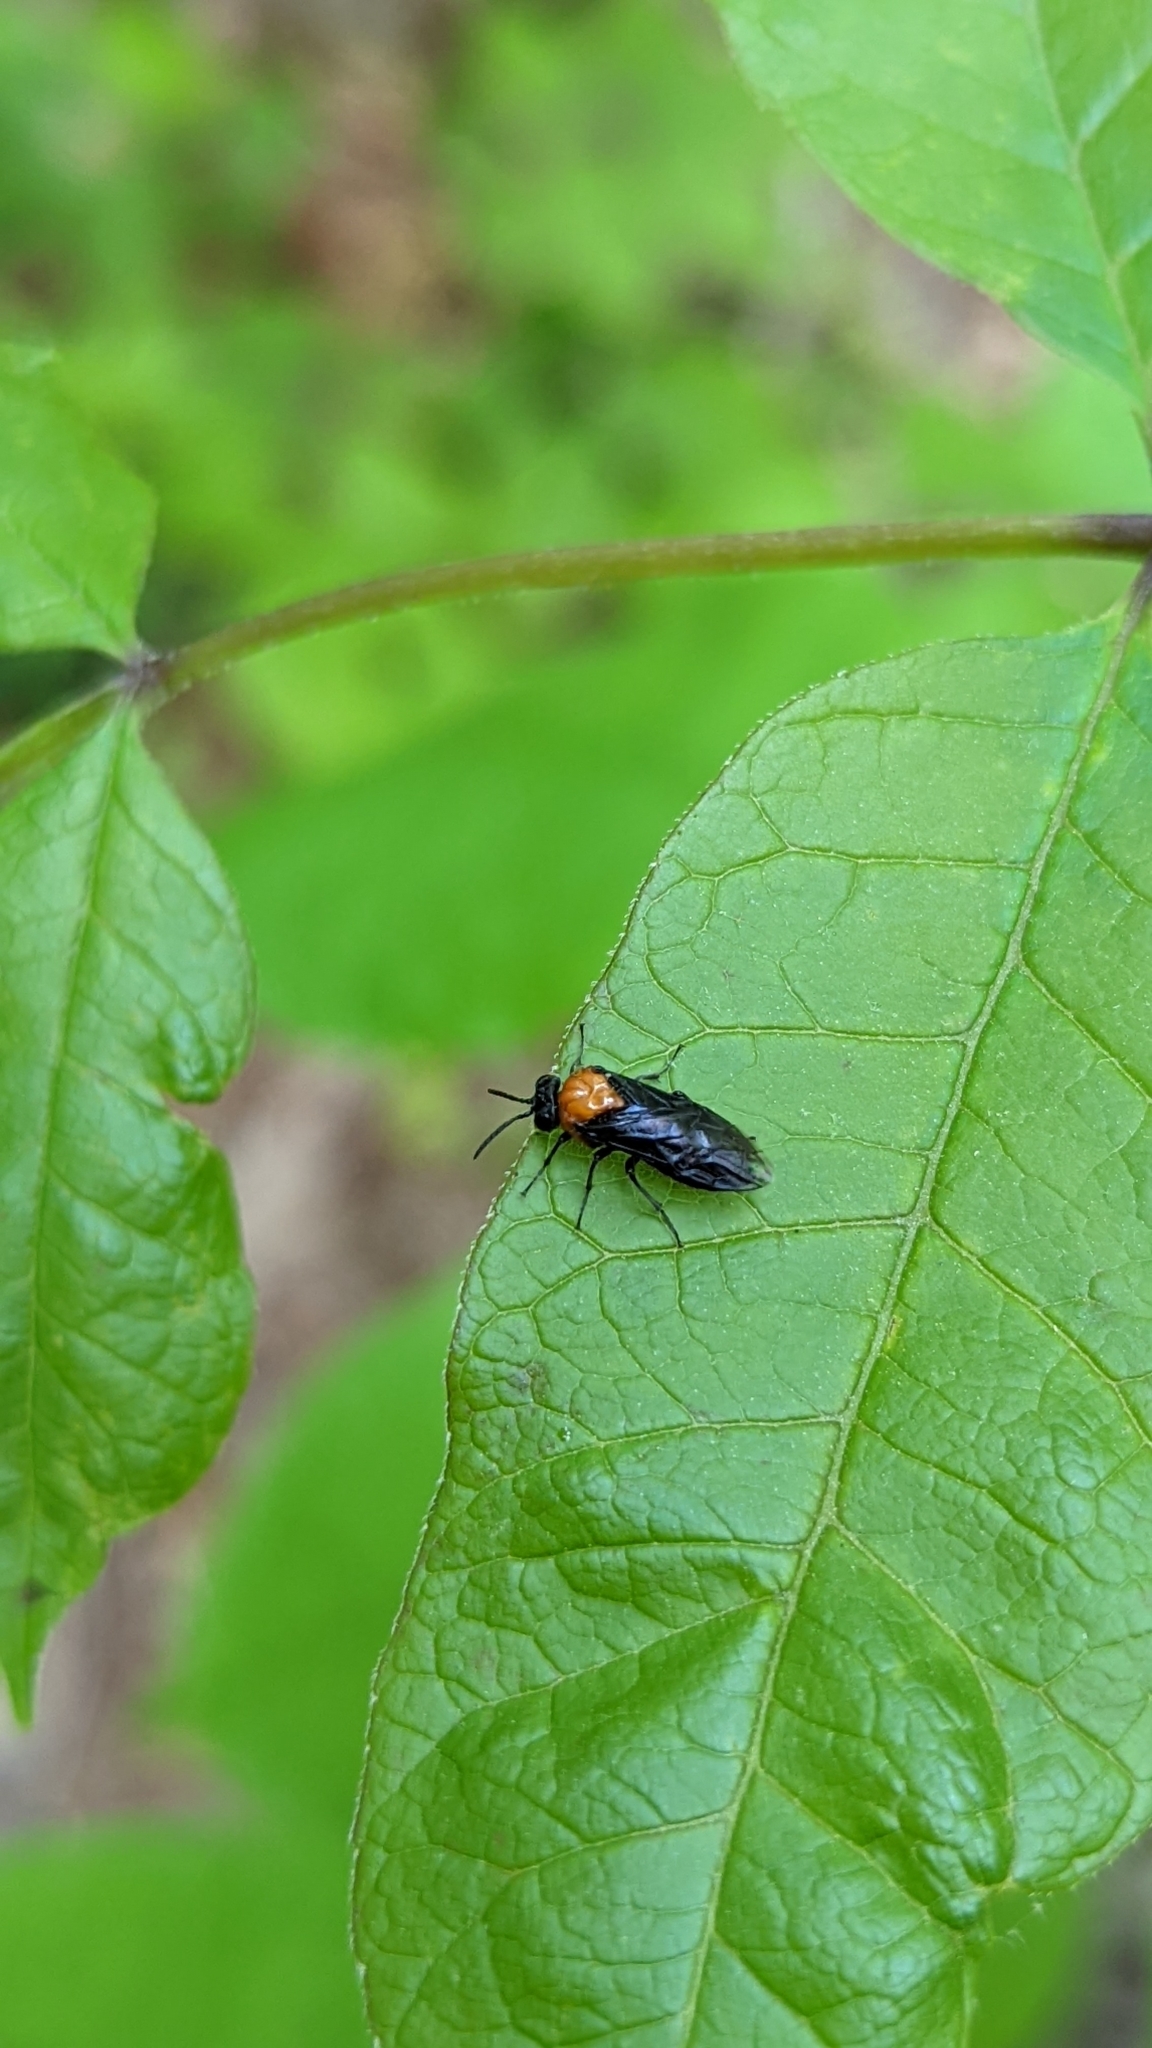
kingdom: Animalia
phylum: Arthropoda
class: Insecta
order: Hymenoptera
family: Tenthredinidae
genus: Tethida
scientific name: Tethida barda
